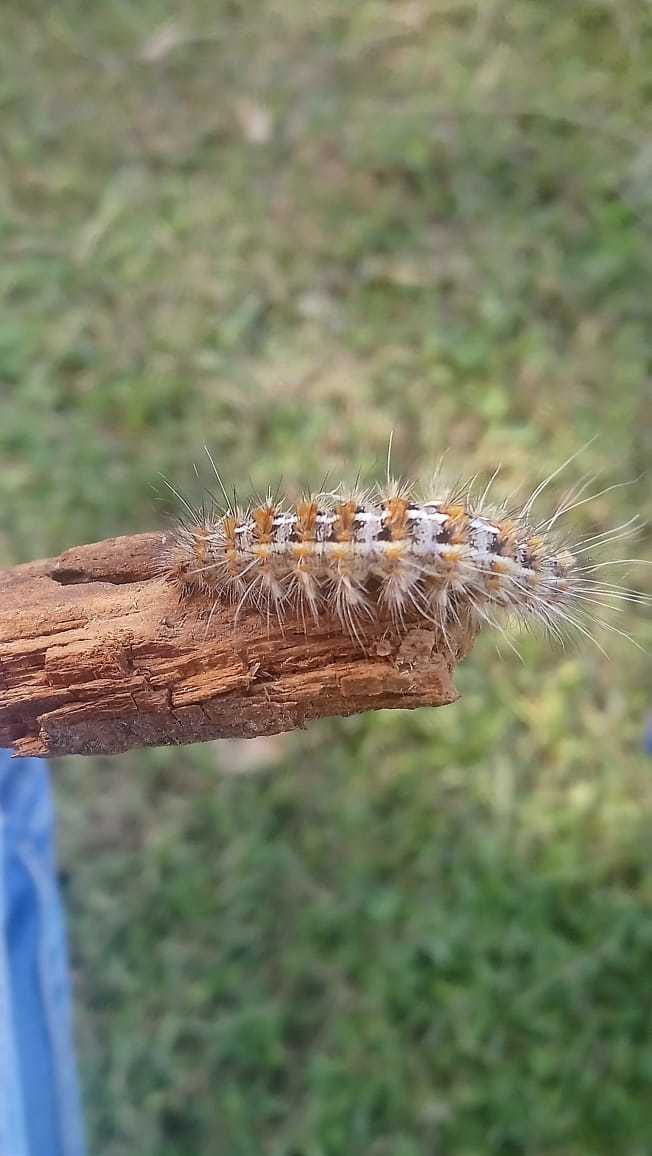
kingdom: Animalia
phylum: Arthropoda
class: Insecta
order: Lepidoptera
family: Erebidae
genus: Paracles
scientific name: Paracles deserticola
